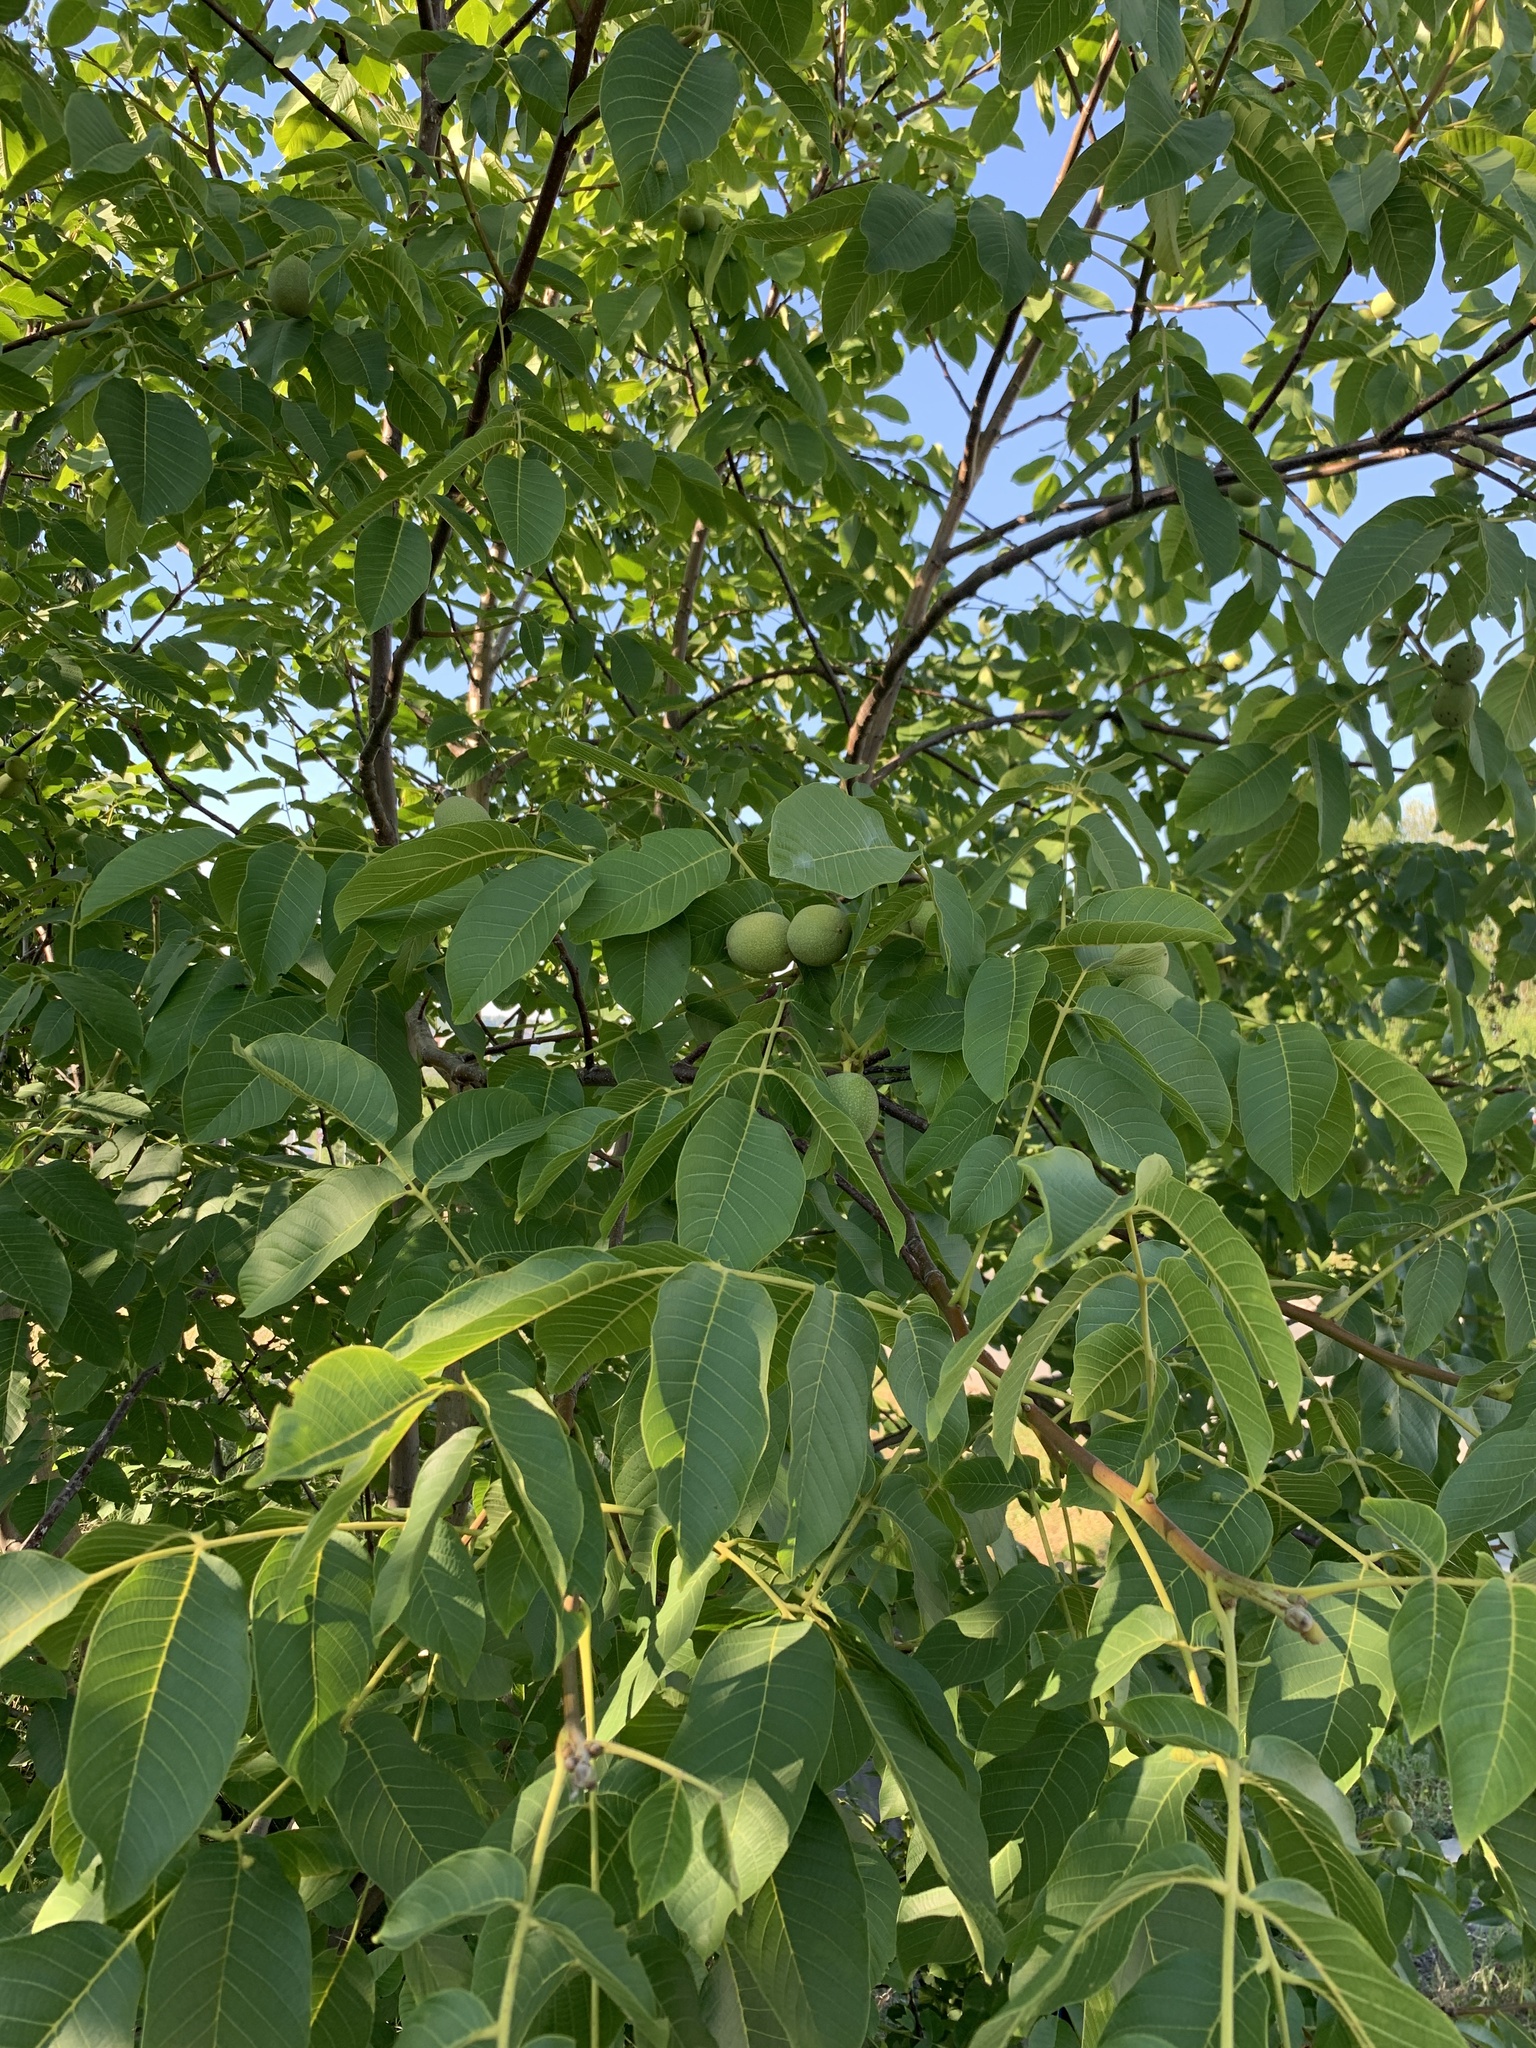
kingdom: Plantae
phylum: Tracheophyta
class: Magnoliopsida
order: Fagales
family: Juglandaceae
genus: Juglans
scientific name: Juglans regia
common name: Walnut
